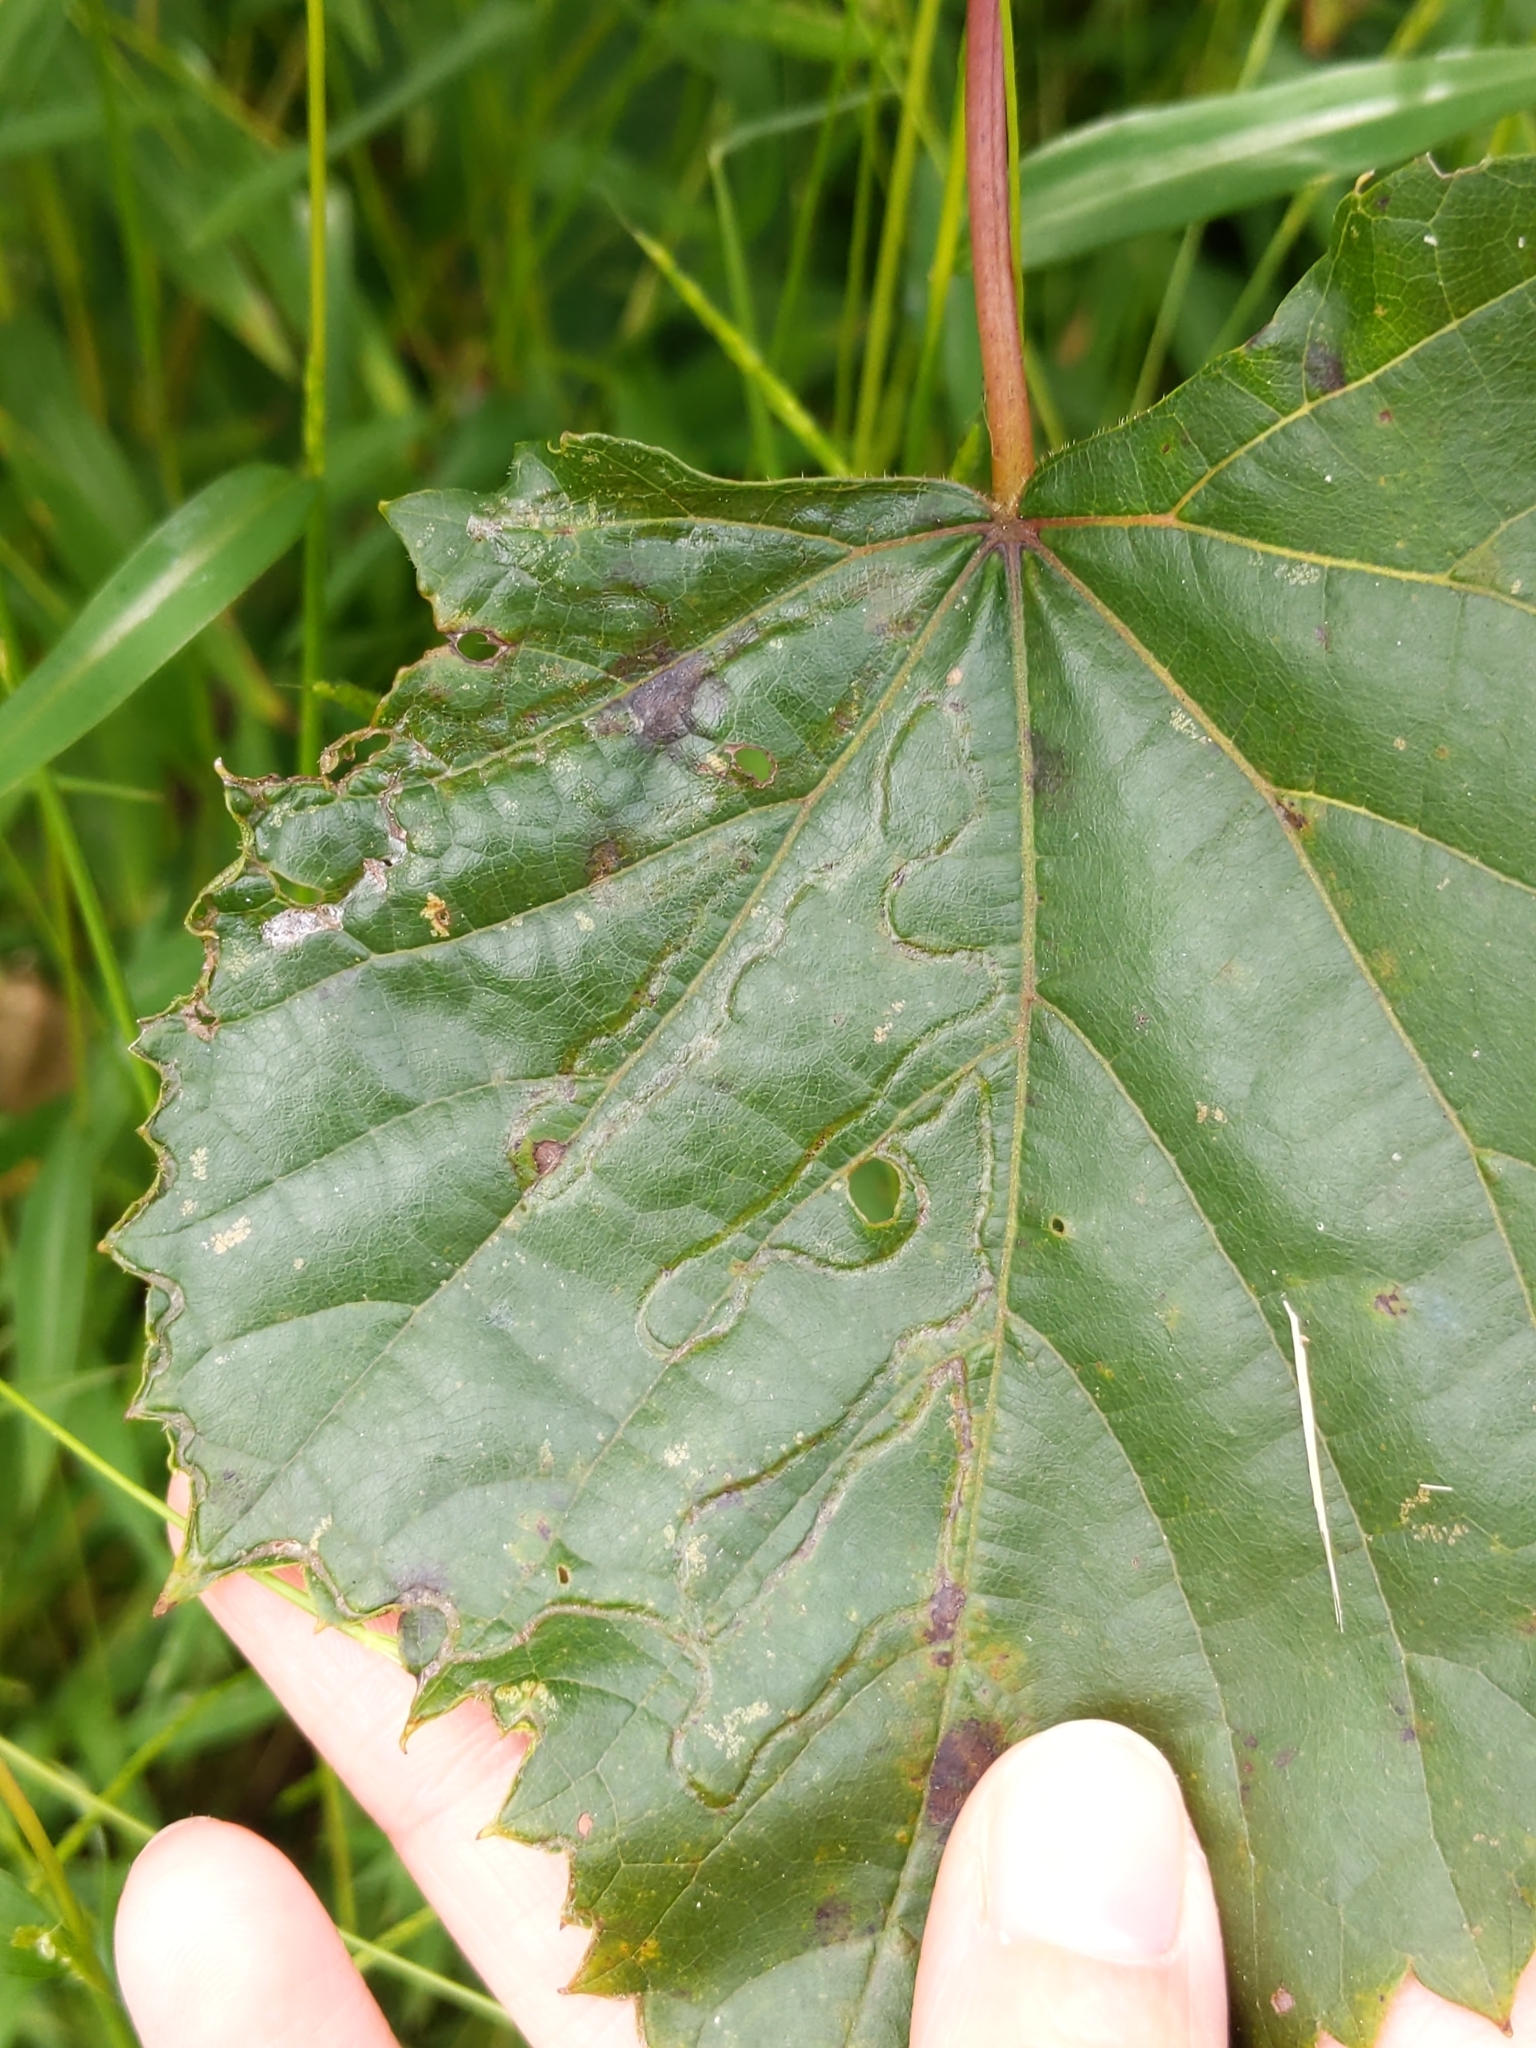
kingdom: Animalia
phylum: Arthropoda
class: Insecta
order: Lepidoptera
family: Gracillariidae
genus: Phyllocnistis
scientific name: Phyllocnistis vitegenella
